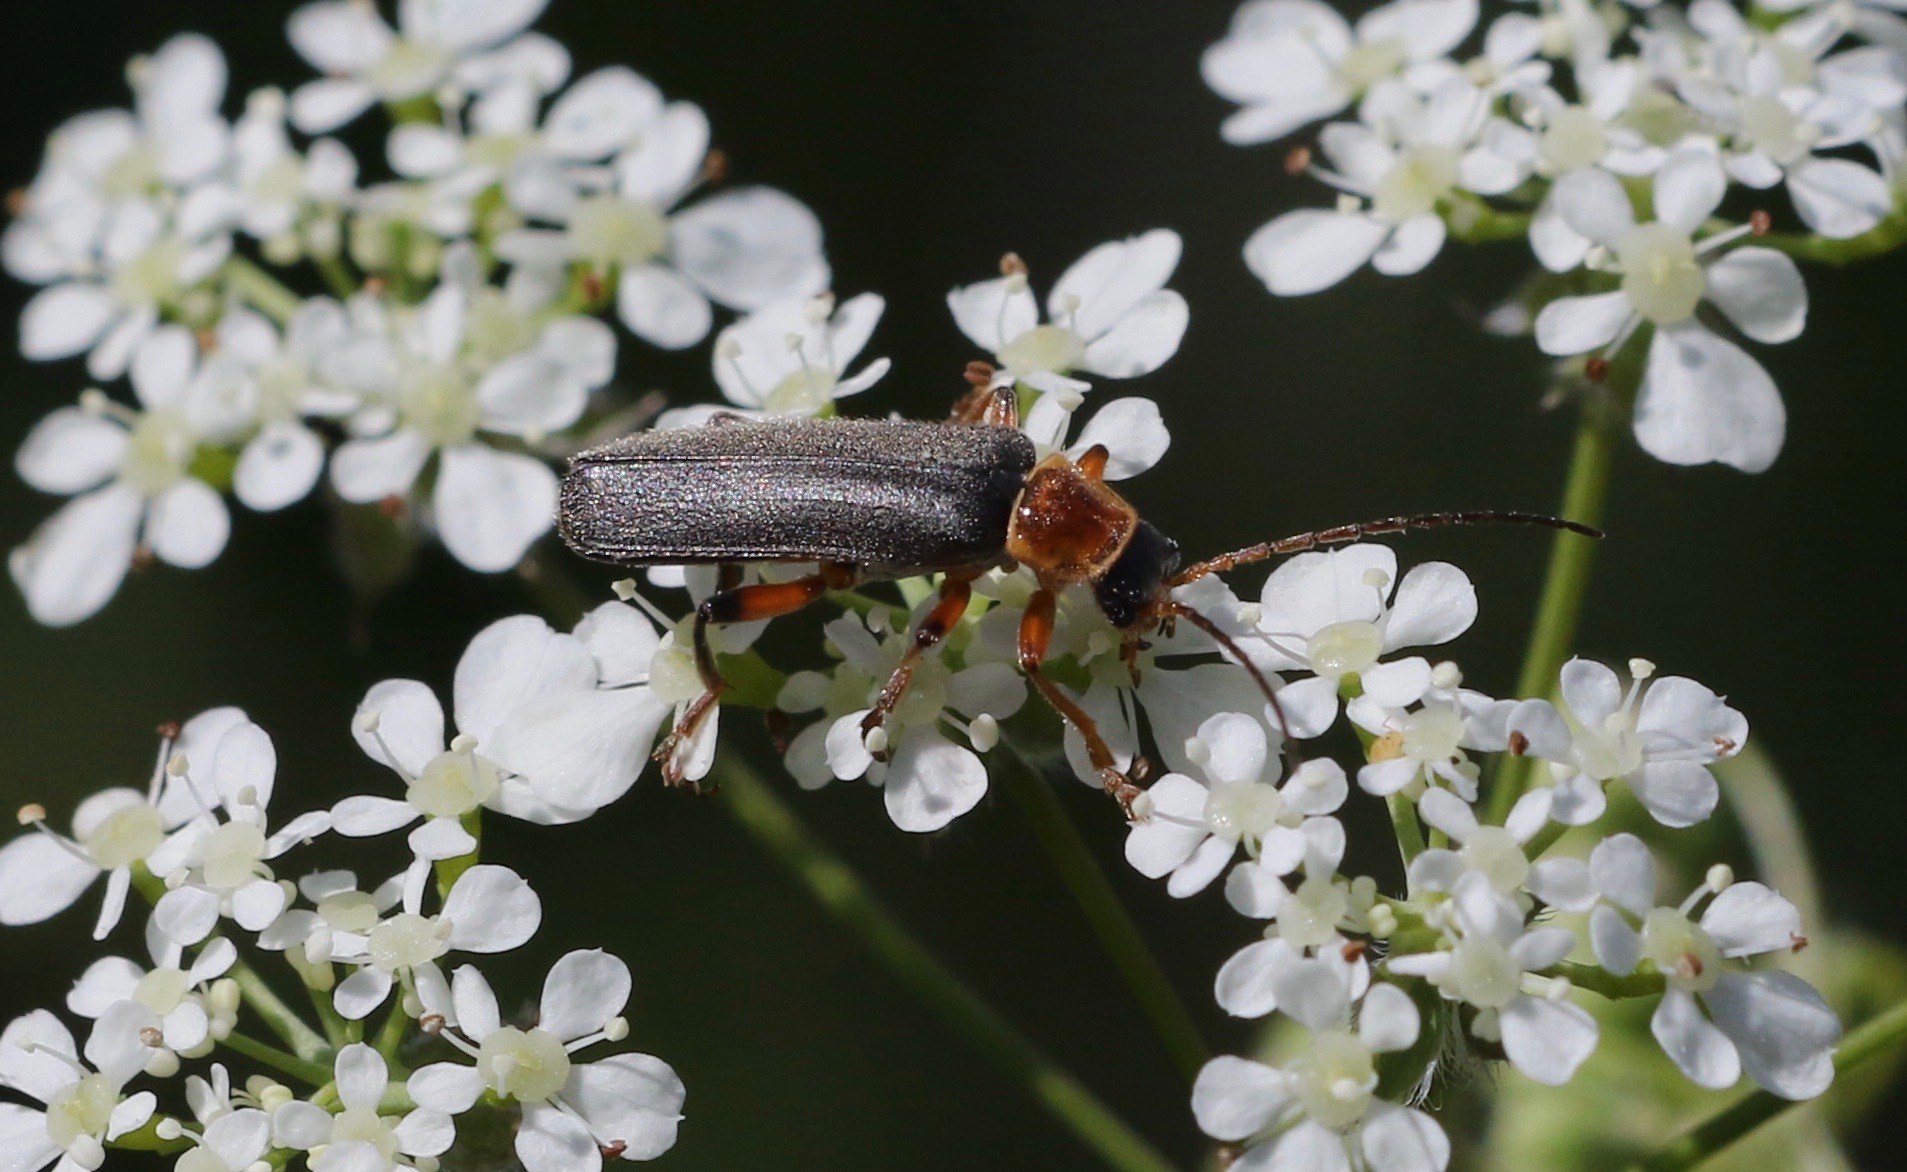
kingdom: Animalia
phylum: Arthropoda
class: Insecta
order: Coleoptera
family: Cantharidae
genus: Cantharis
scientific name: Cantharis nigricans
